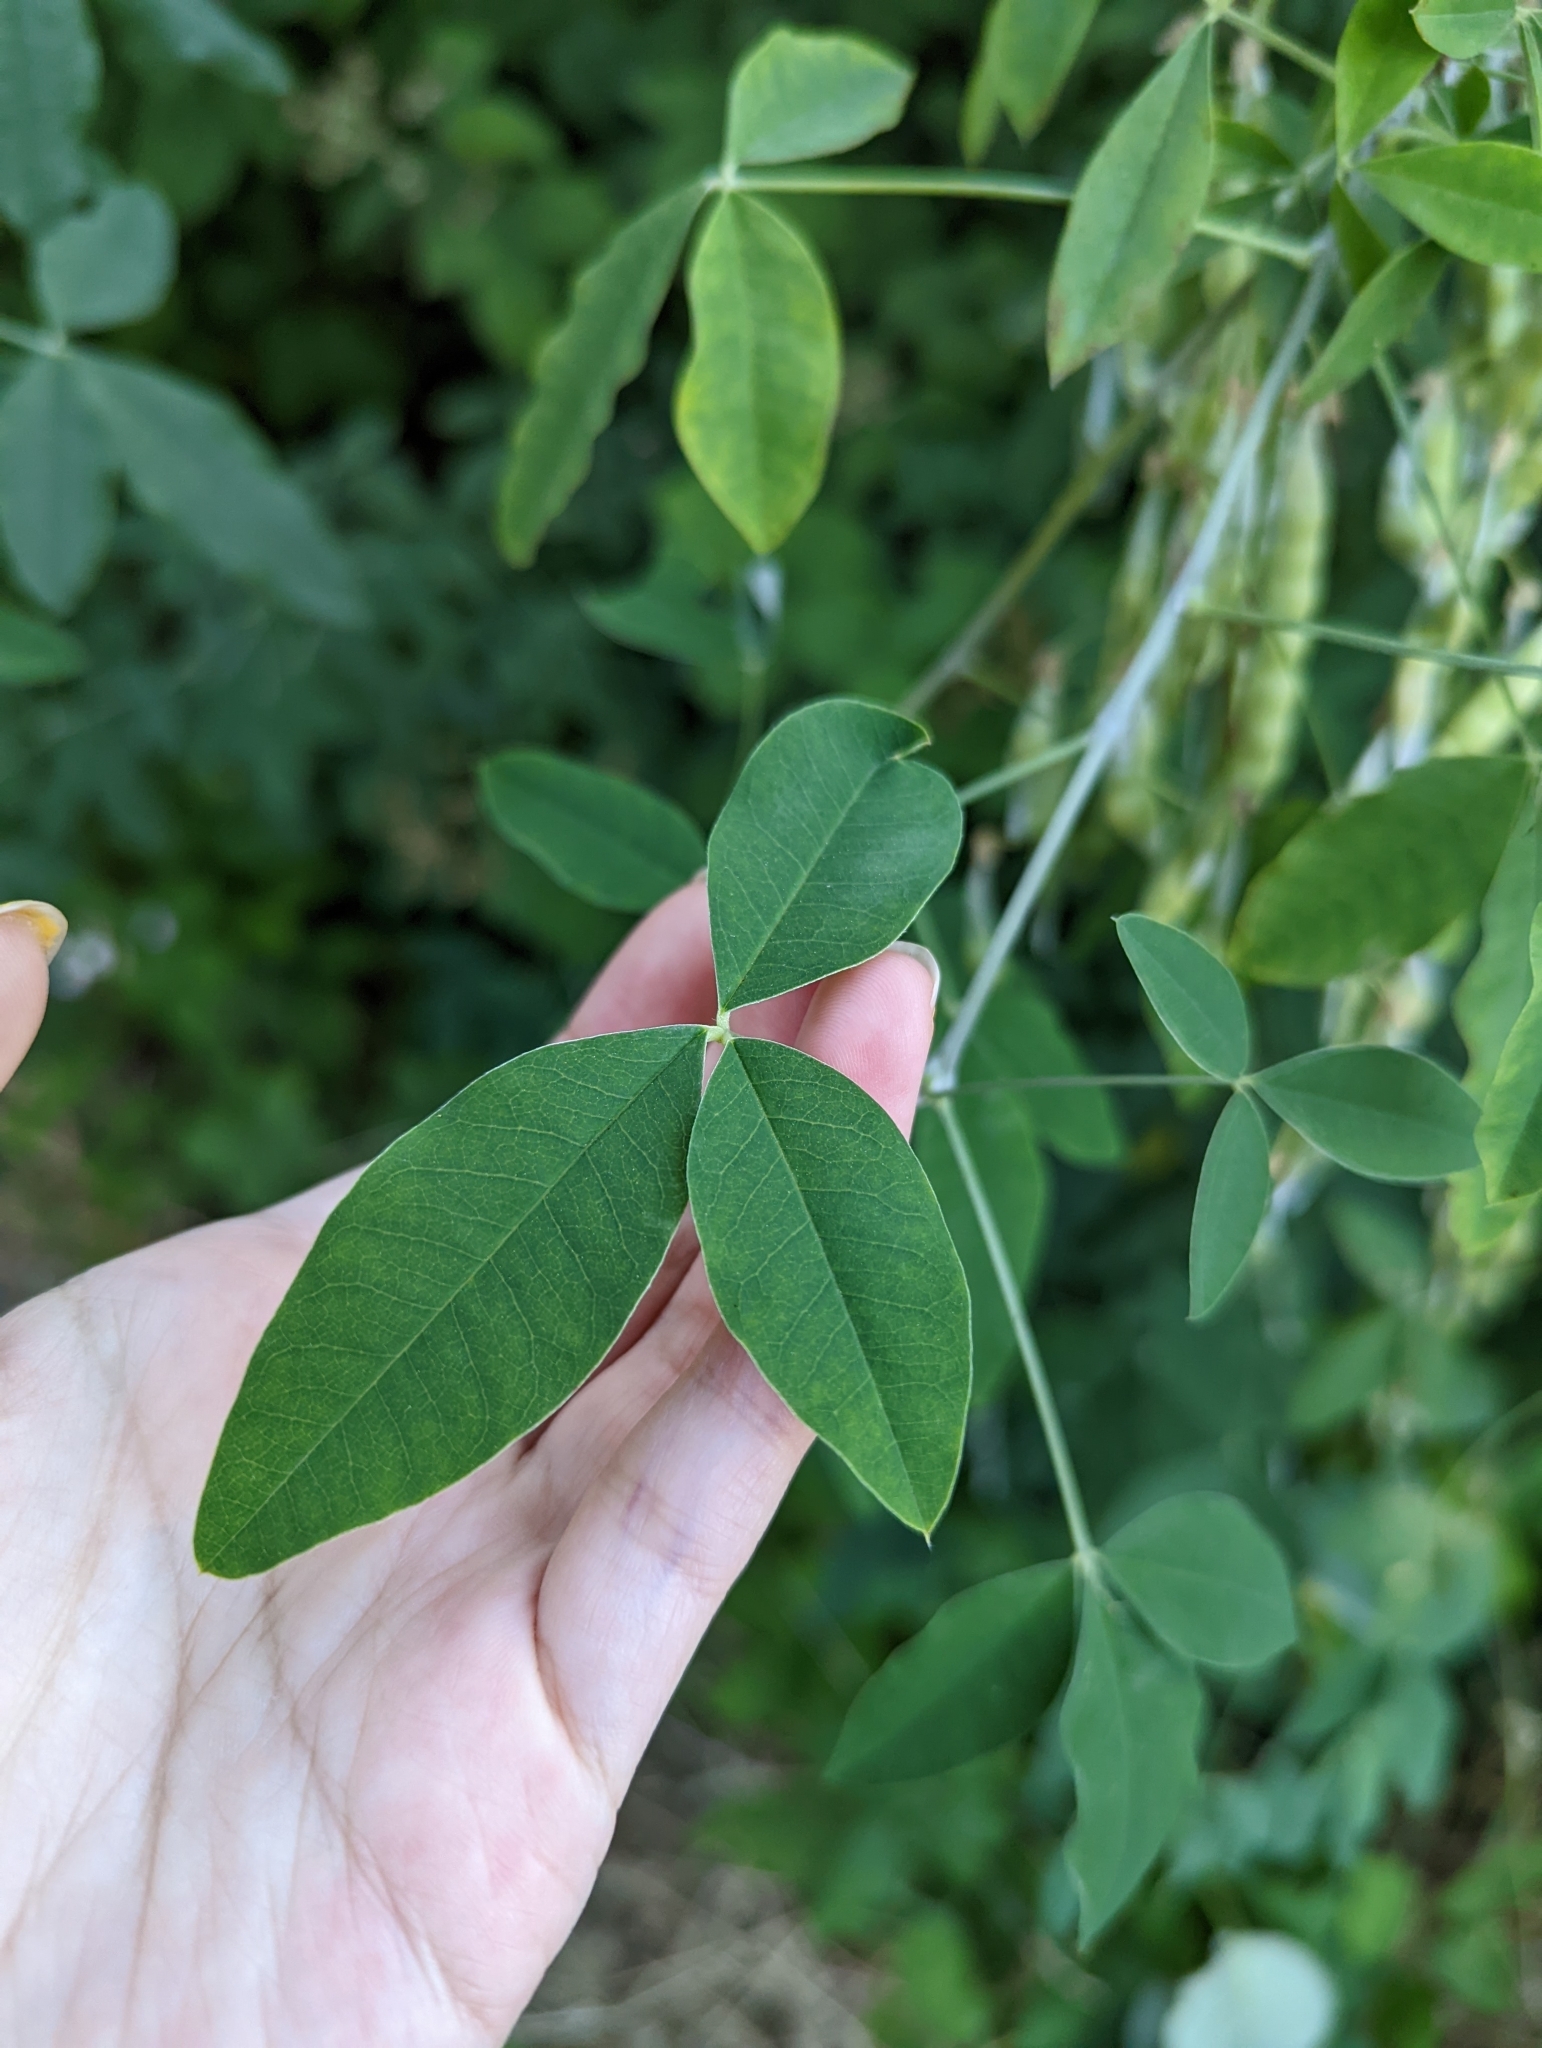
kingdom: Plantae
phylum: Tracheophyta
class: Magnoliopsida
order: Fabales
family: Fabaceae
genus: Laburnum
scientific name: Laburnum anagyroides
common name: Laburnum
